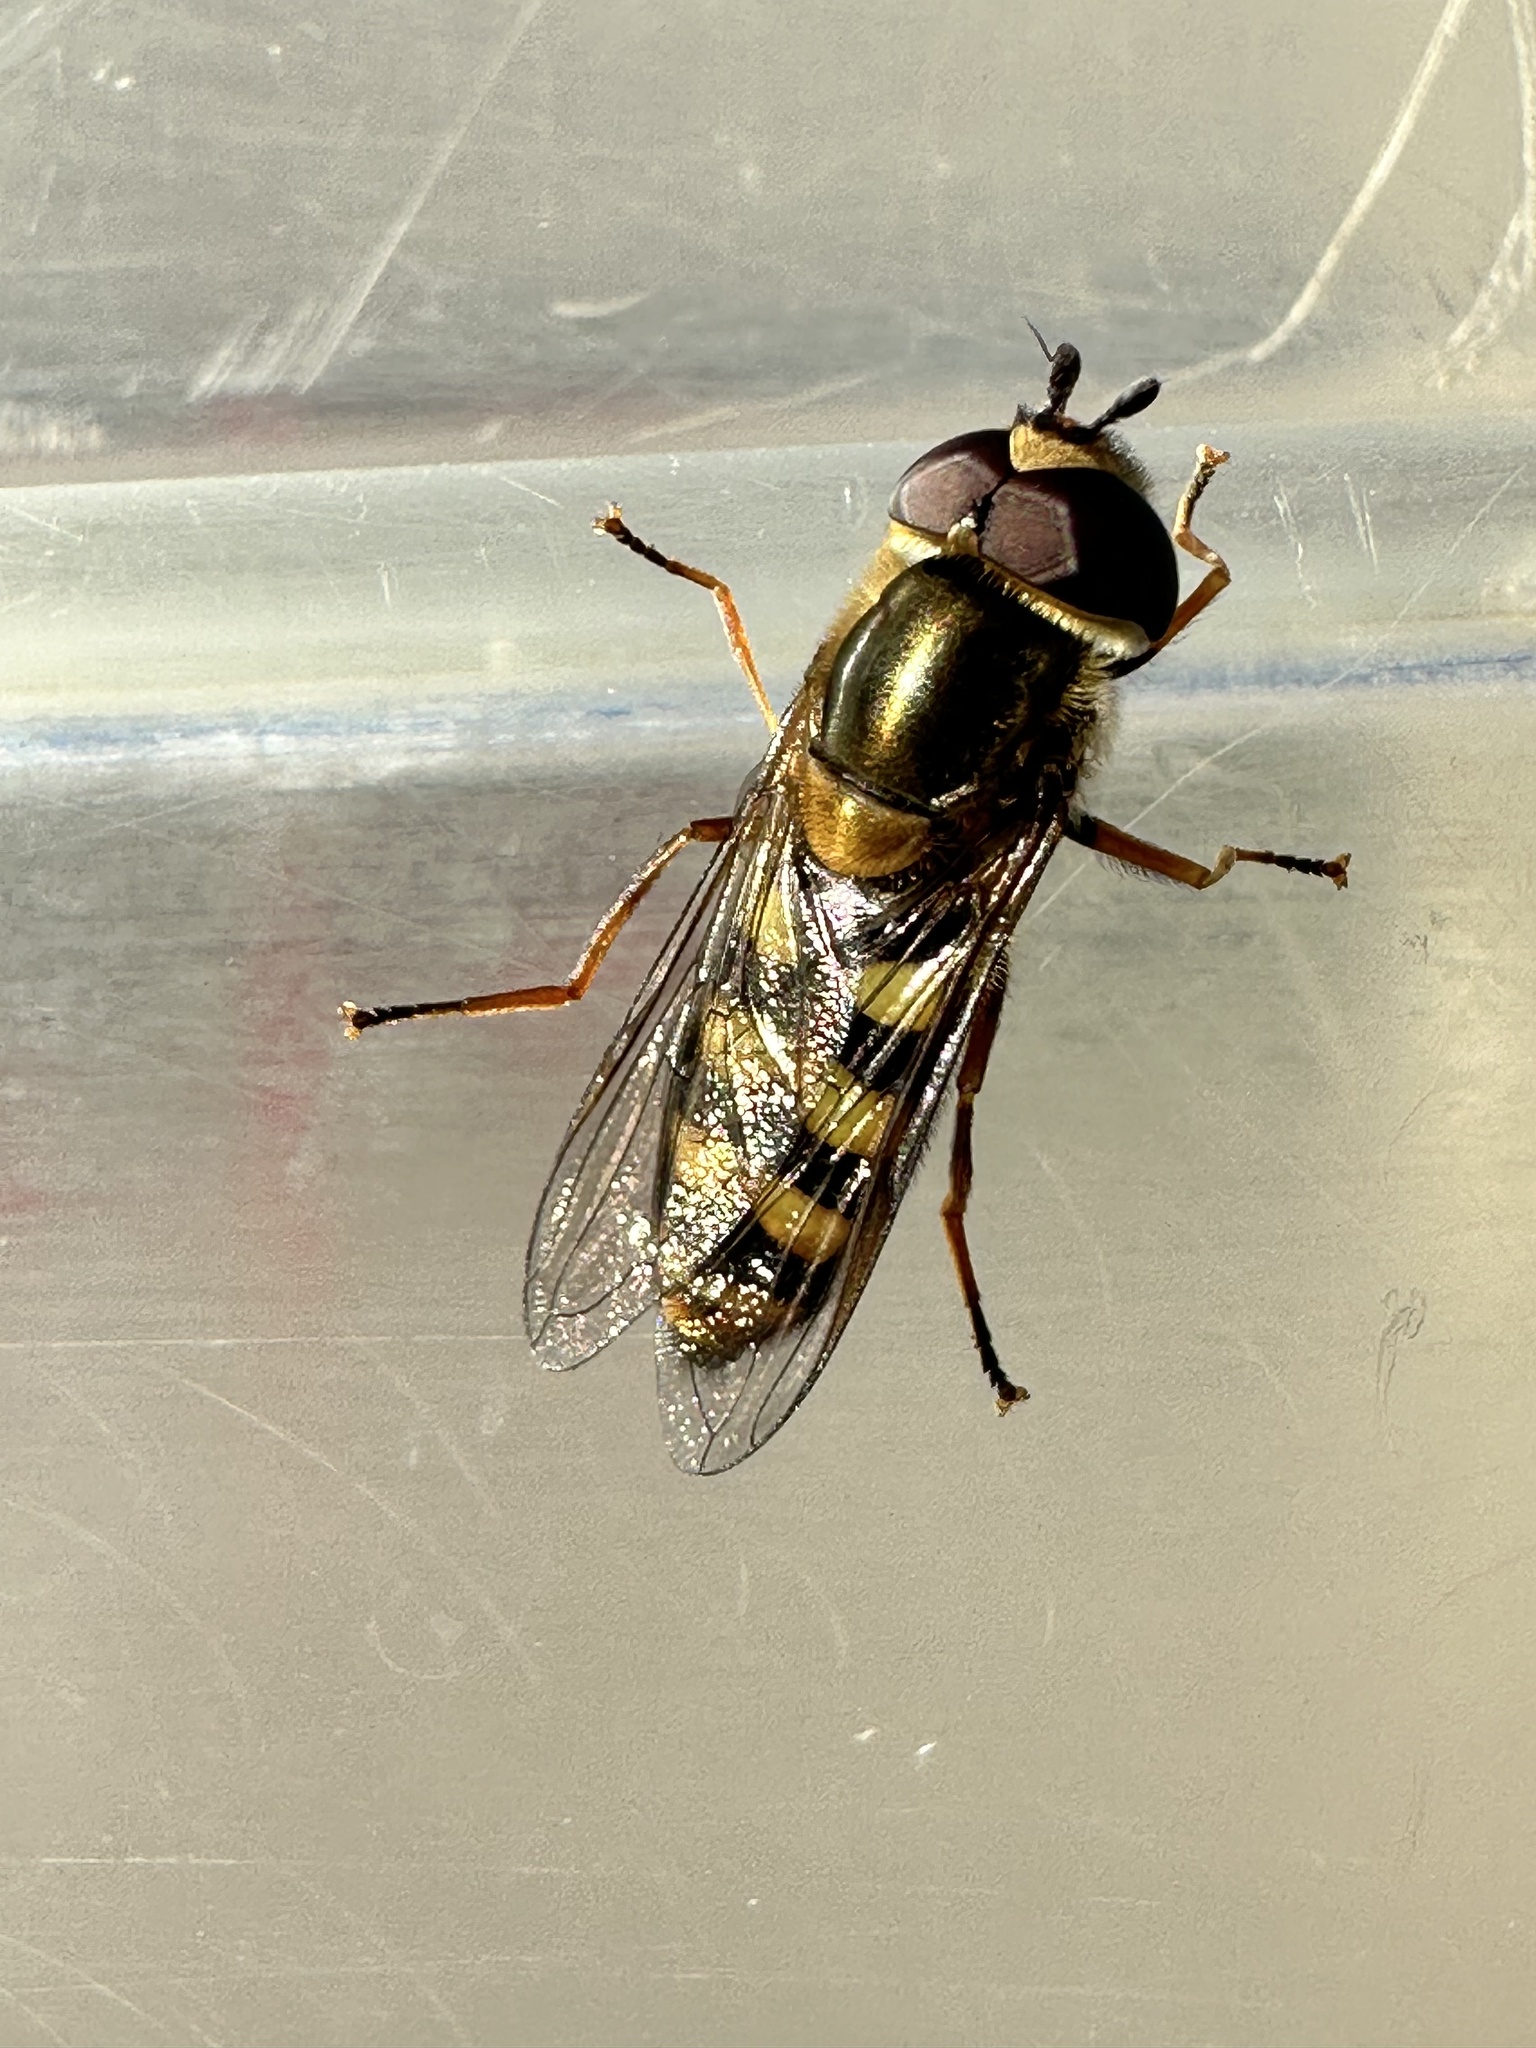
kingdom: Animalia
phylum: Arthropoda
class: Insecta
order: Diptera
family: Syrphidae
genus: Eupeodes
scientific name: Eupeodes fumipennis
